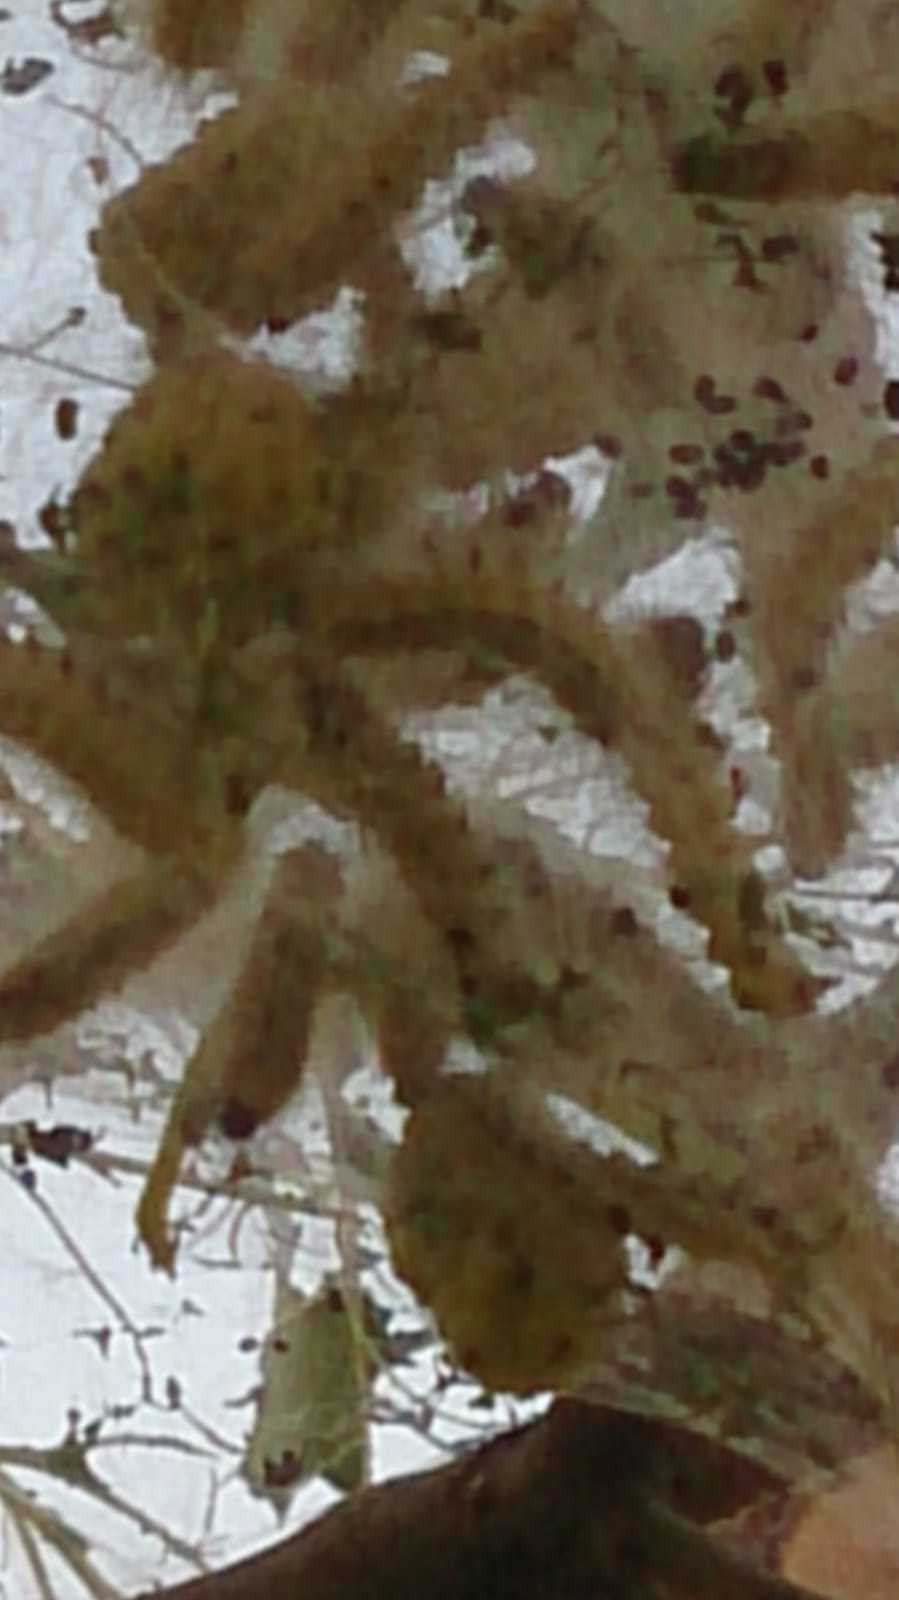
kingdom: Animalia
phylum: Arthropoda
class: Insecta
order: Lepidoptera
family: Erebidae
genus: Hyphantria
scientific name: Hyphantria cunea
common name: American white moth
